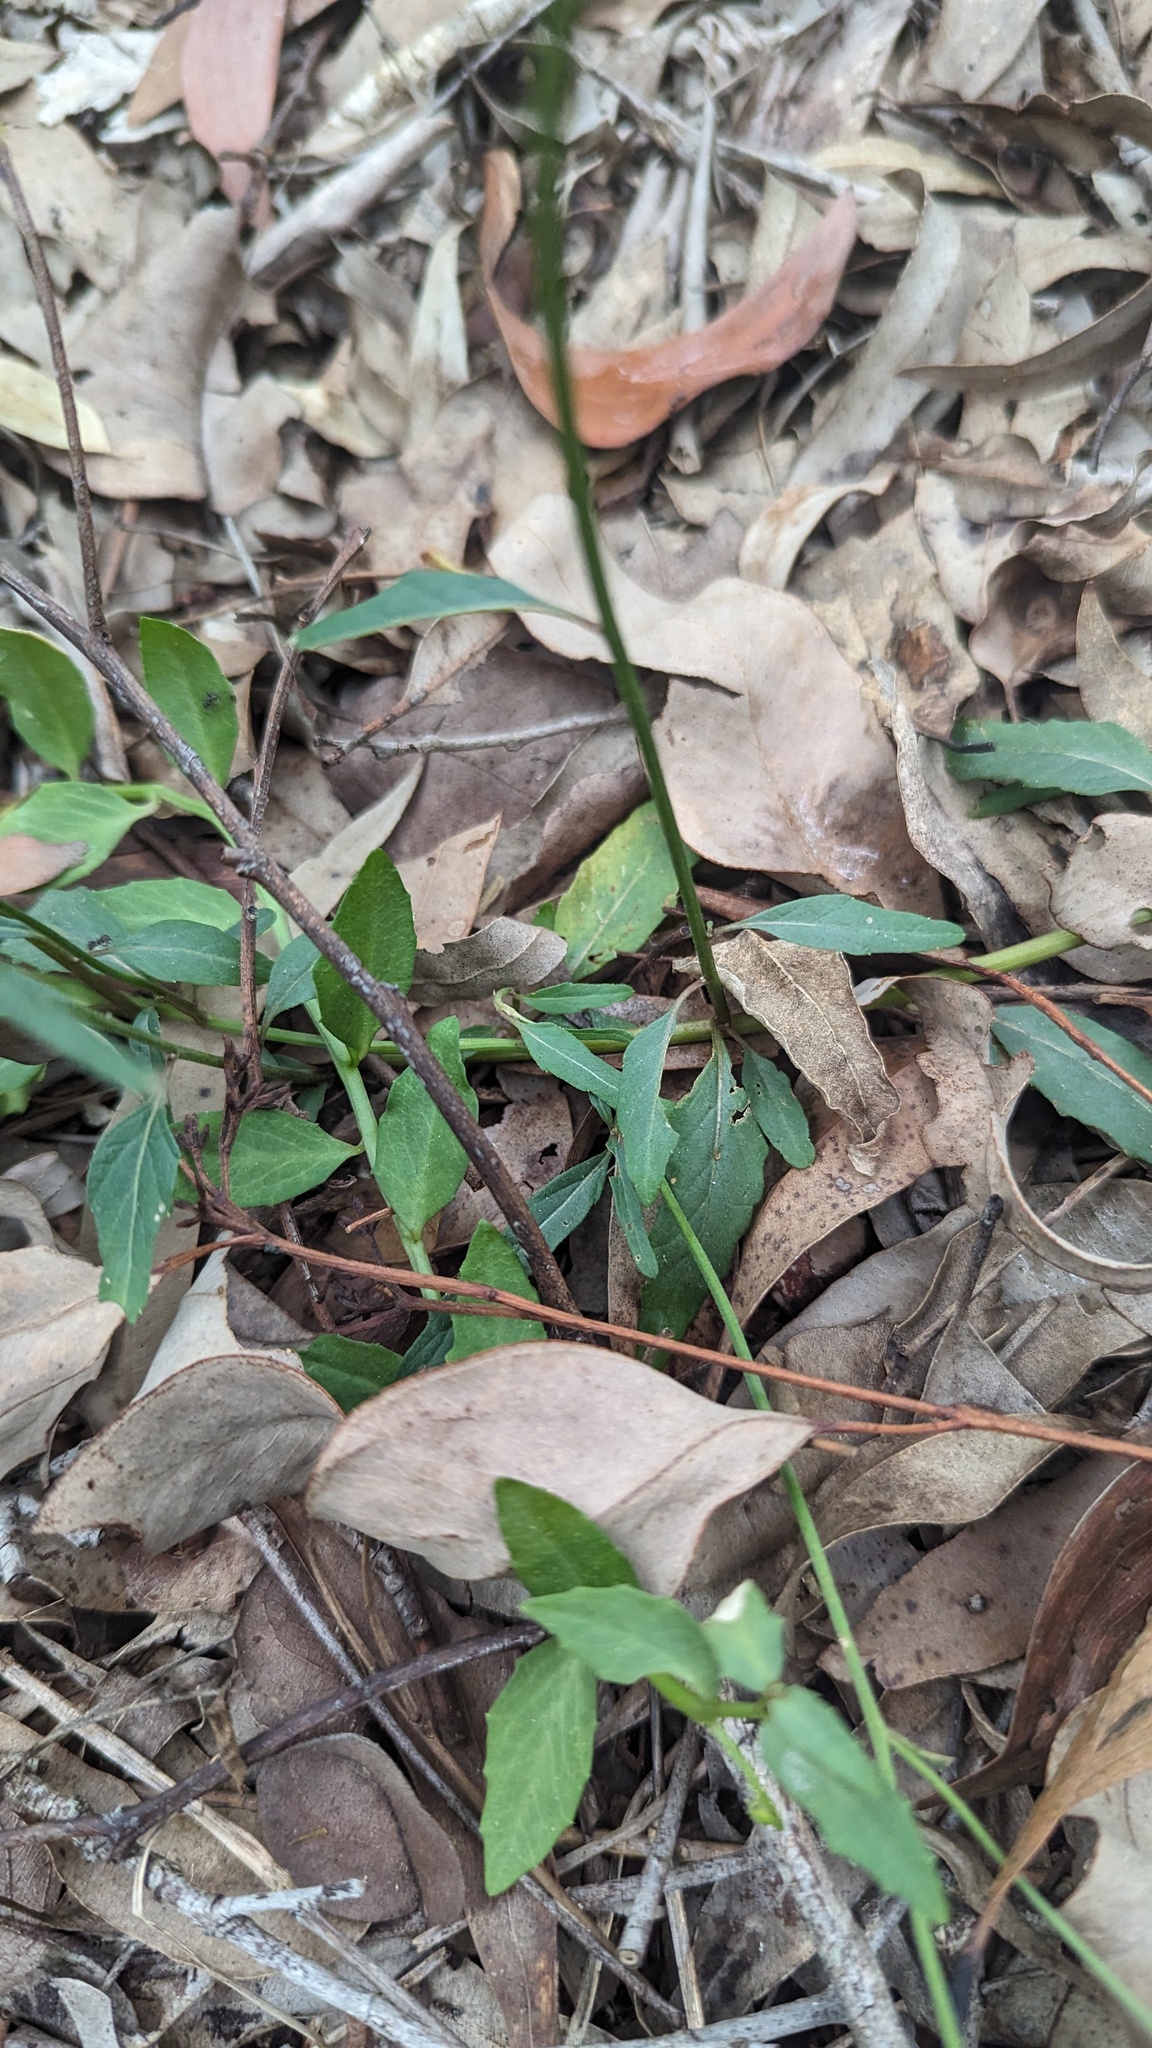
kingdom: Plantae
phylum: Tracheophyta
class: Magnoliopsida
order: Asterales
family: Asteraceae
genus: Cyanthillium
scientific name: Cyanthillium cinereum
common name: Little ironweed
